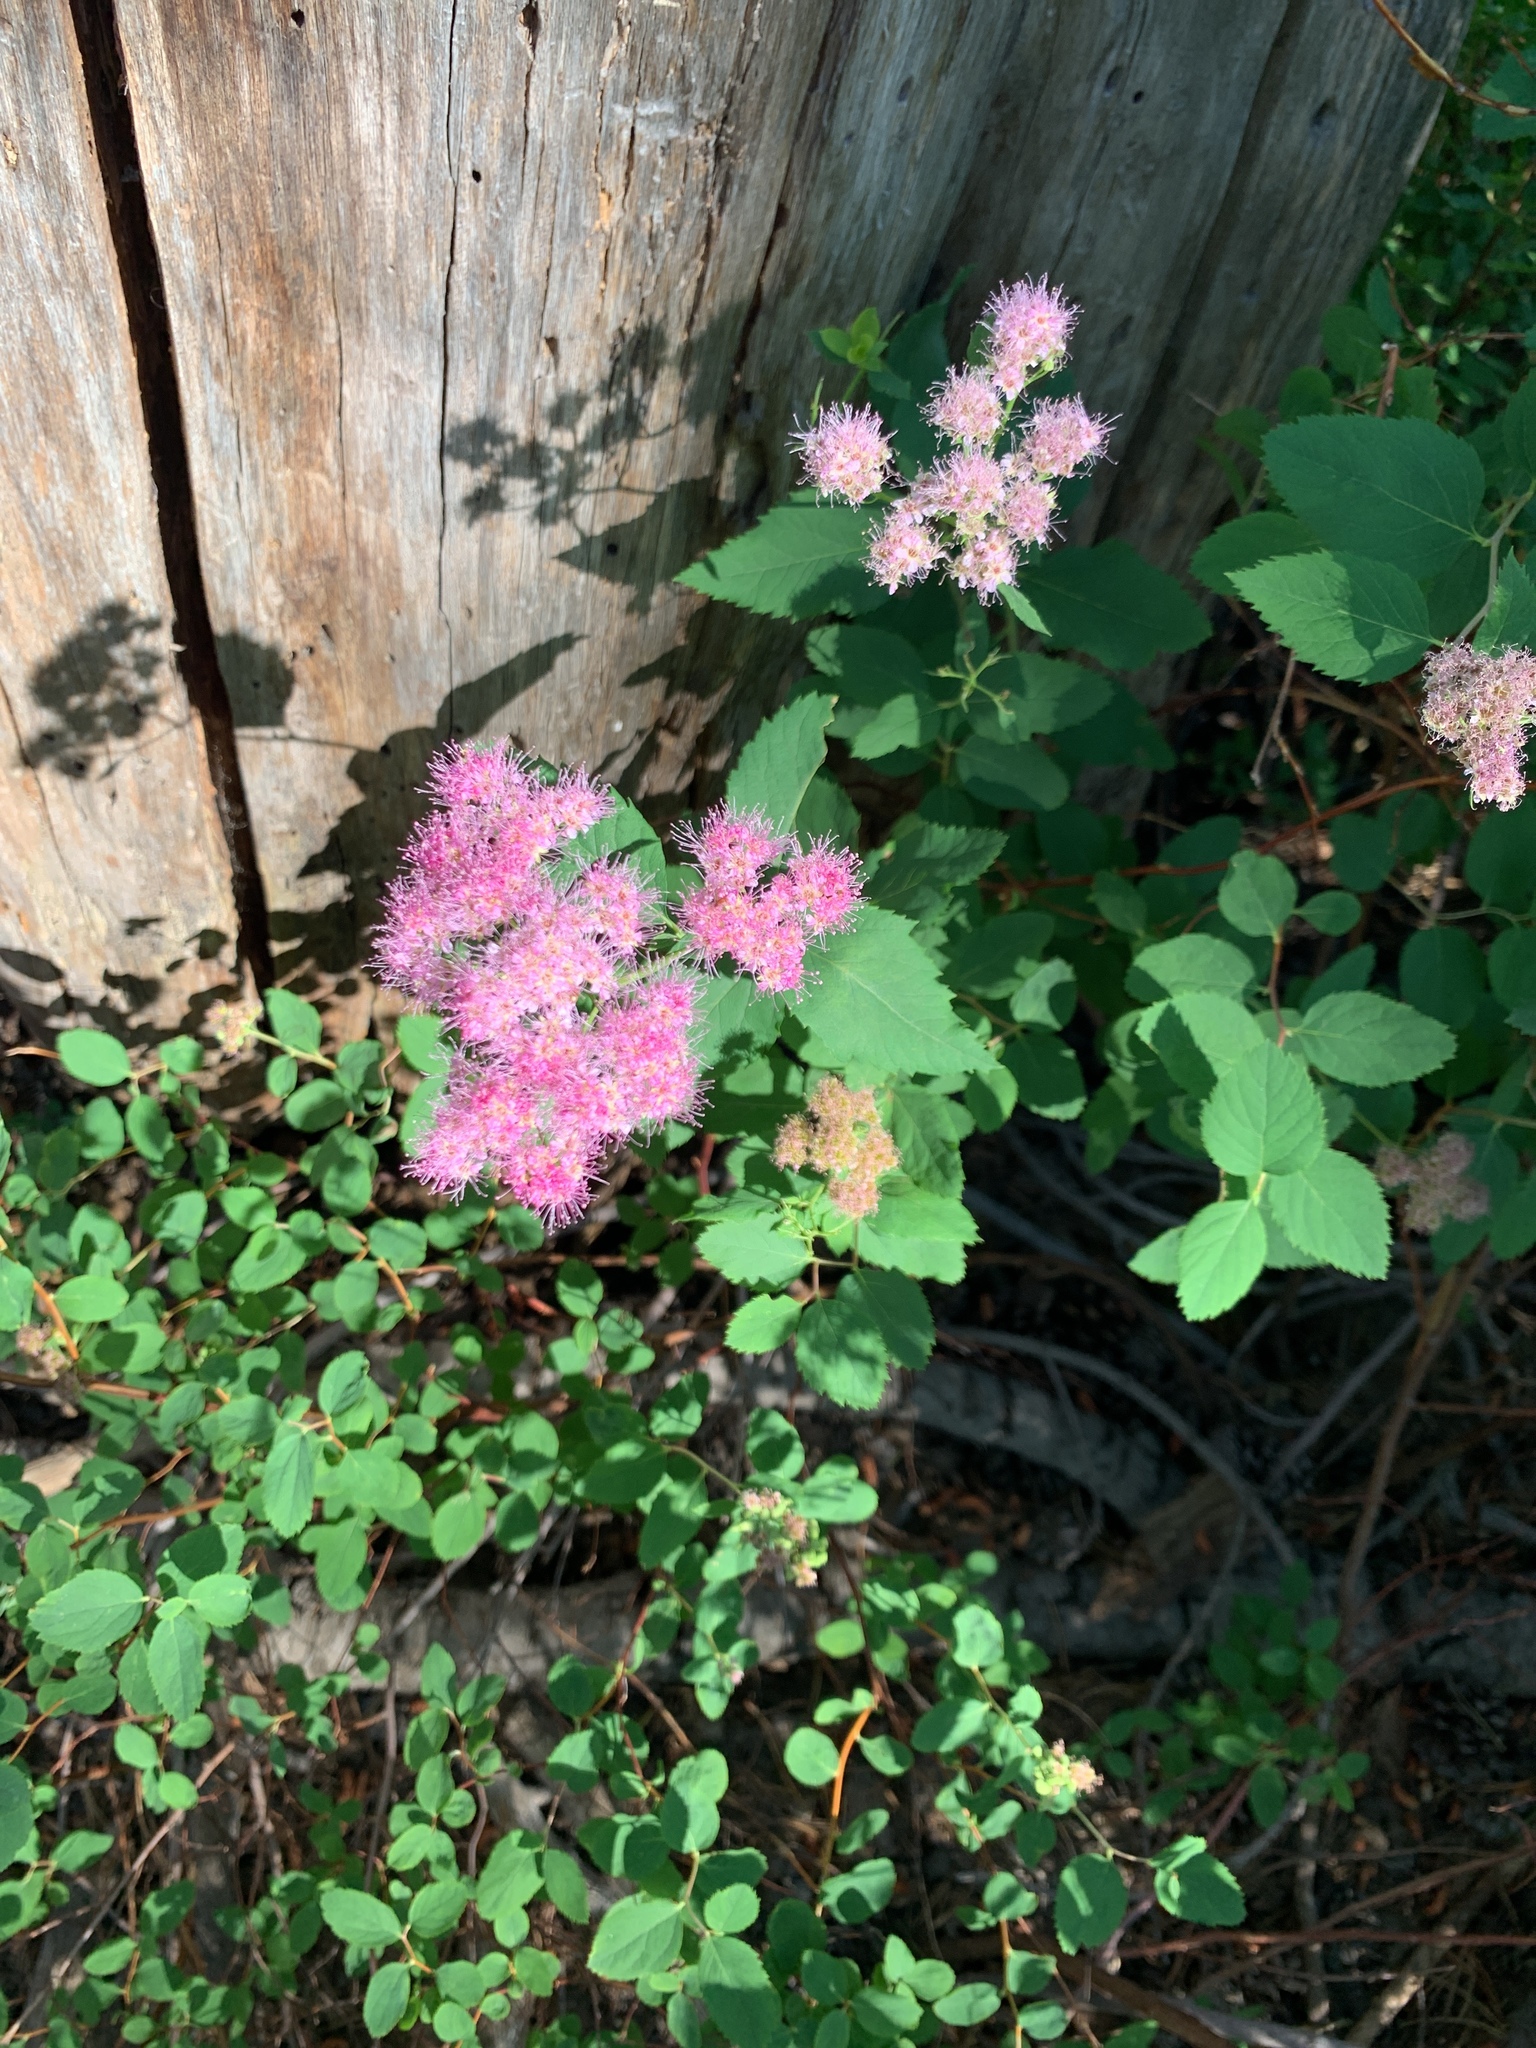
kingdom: Plantae
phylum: Tracheophyta
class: Magnoliopsida
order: Rosales
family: Rosaceae
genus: Spiraea
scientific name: Spiraea splendens
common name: Subalpine meadowsweet
